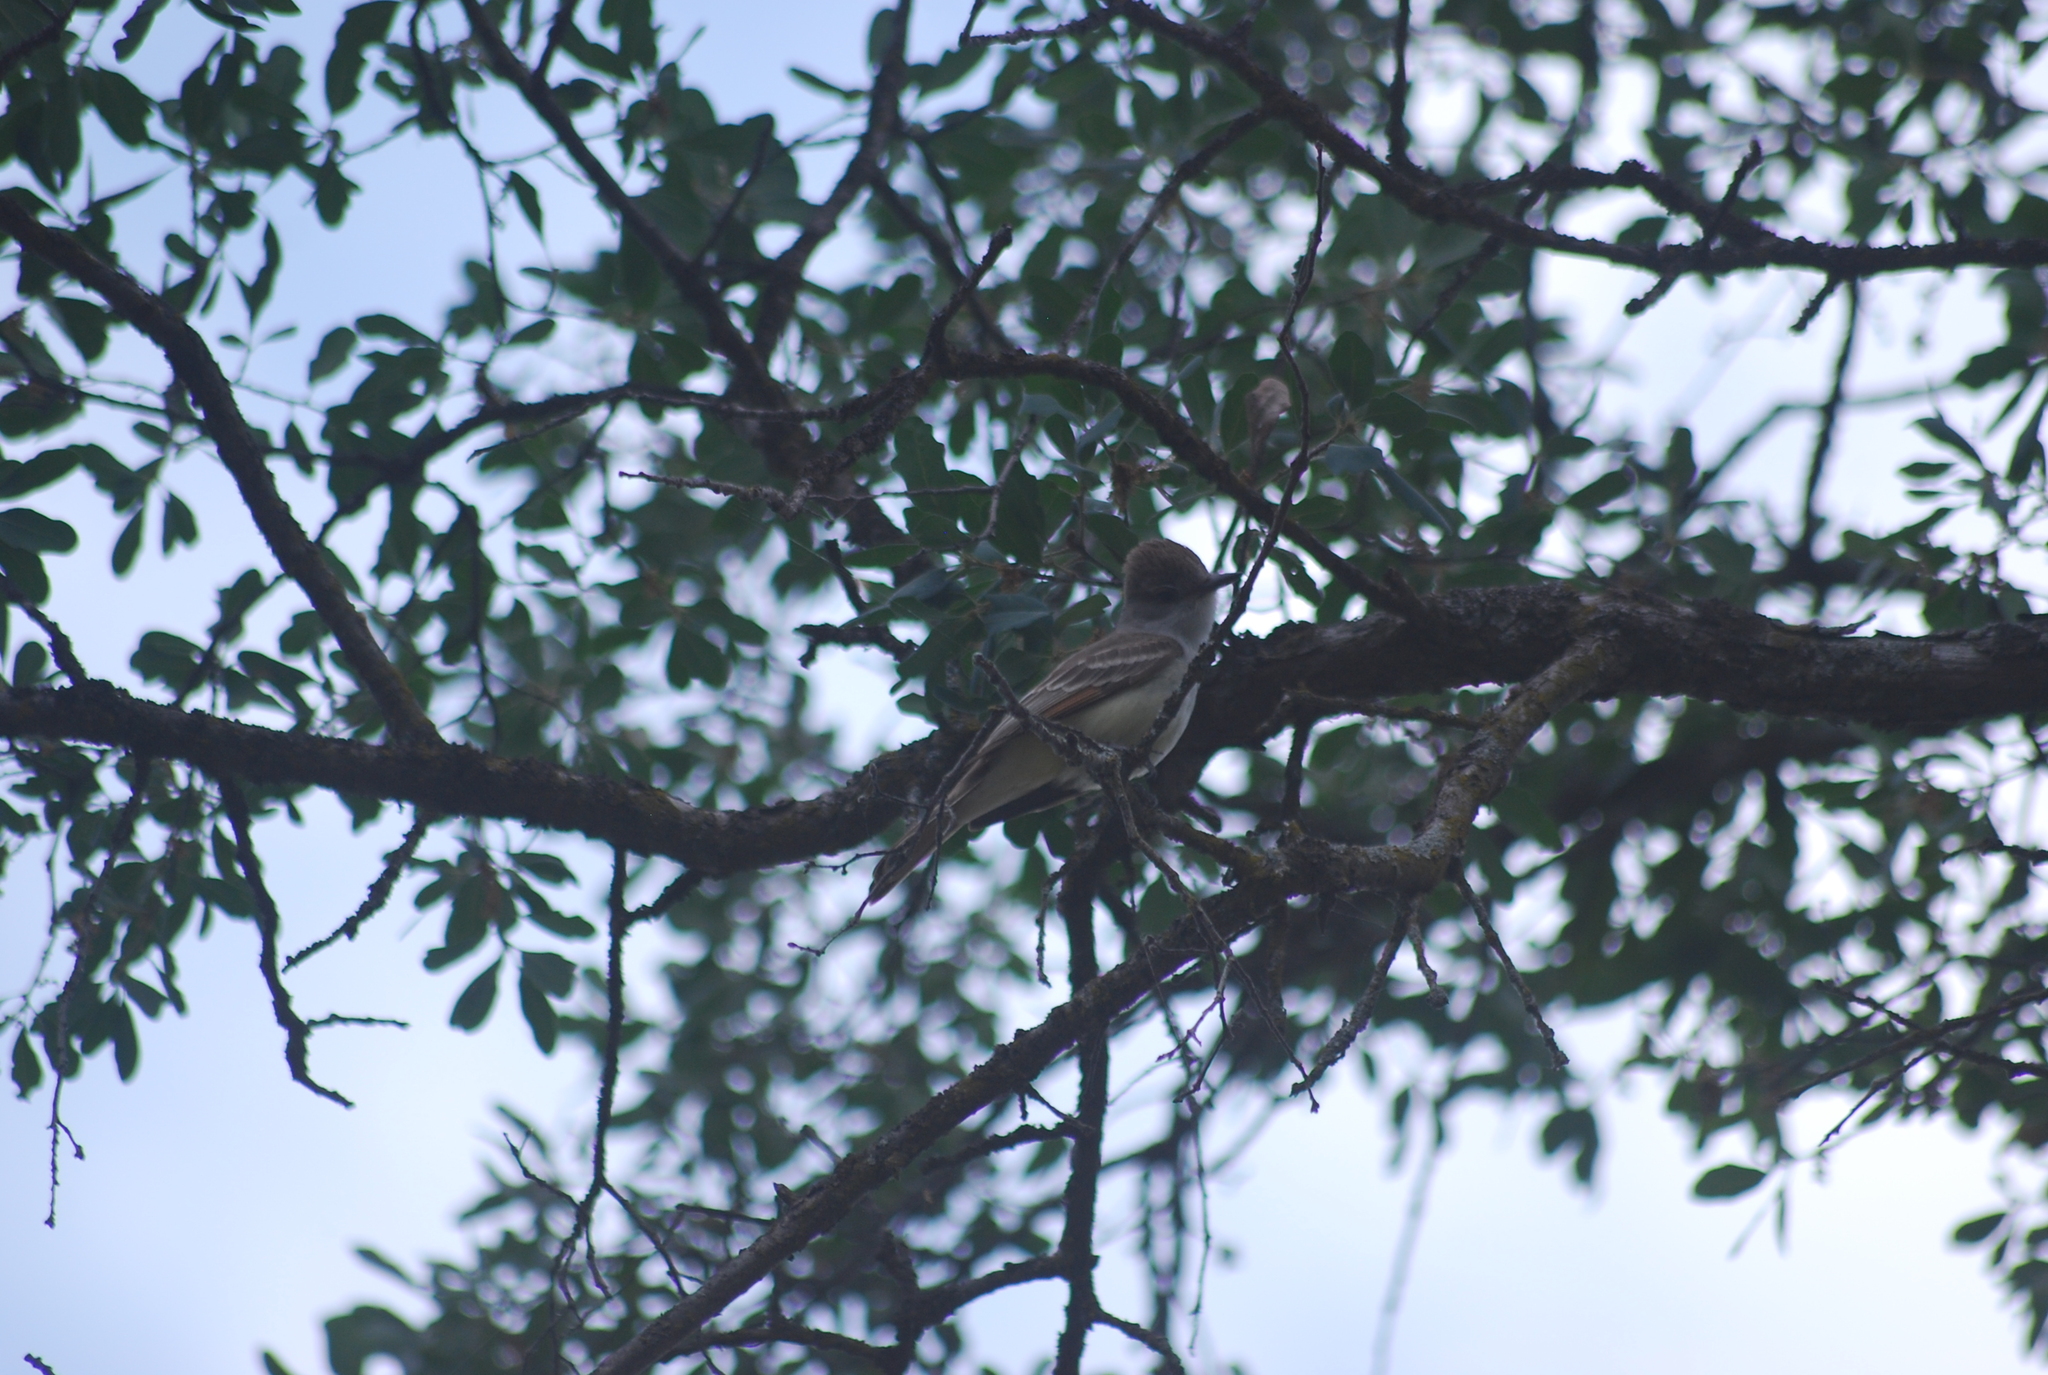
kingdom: Animalia
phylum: Chordata
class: Aves
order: Passeriformes
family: Tyrannidae
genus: Myiarchus
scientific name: Myiarchus cinerascens
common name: Ash-throated flycatcher
